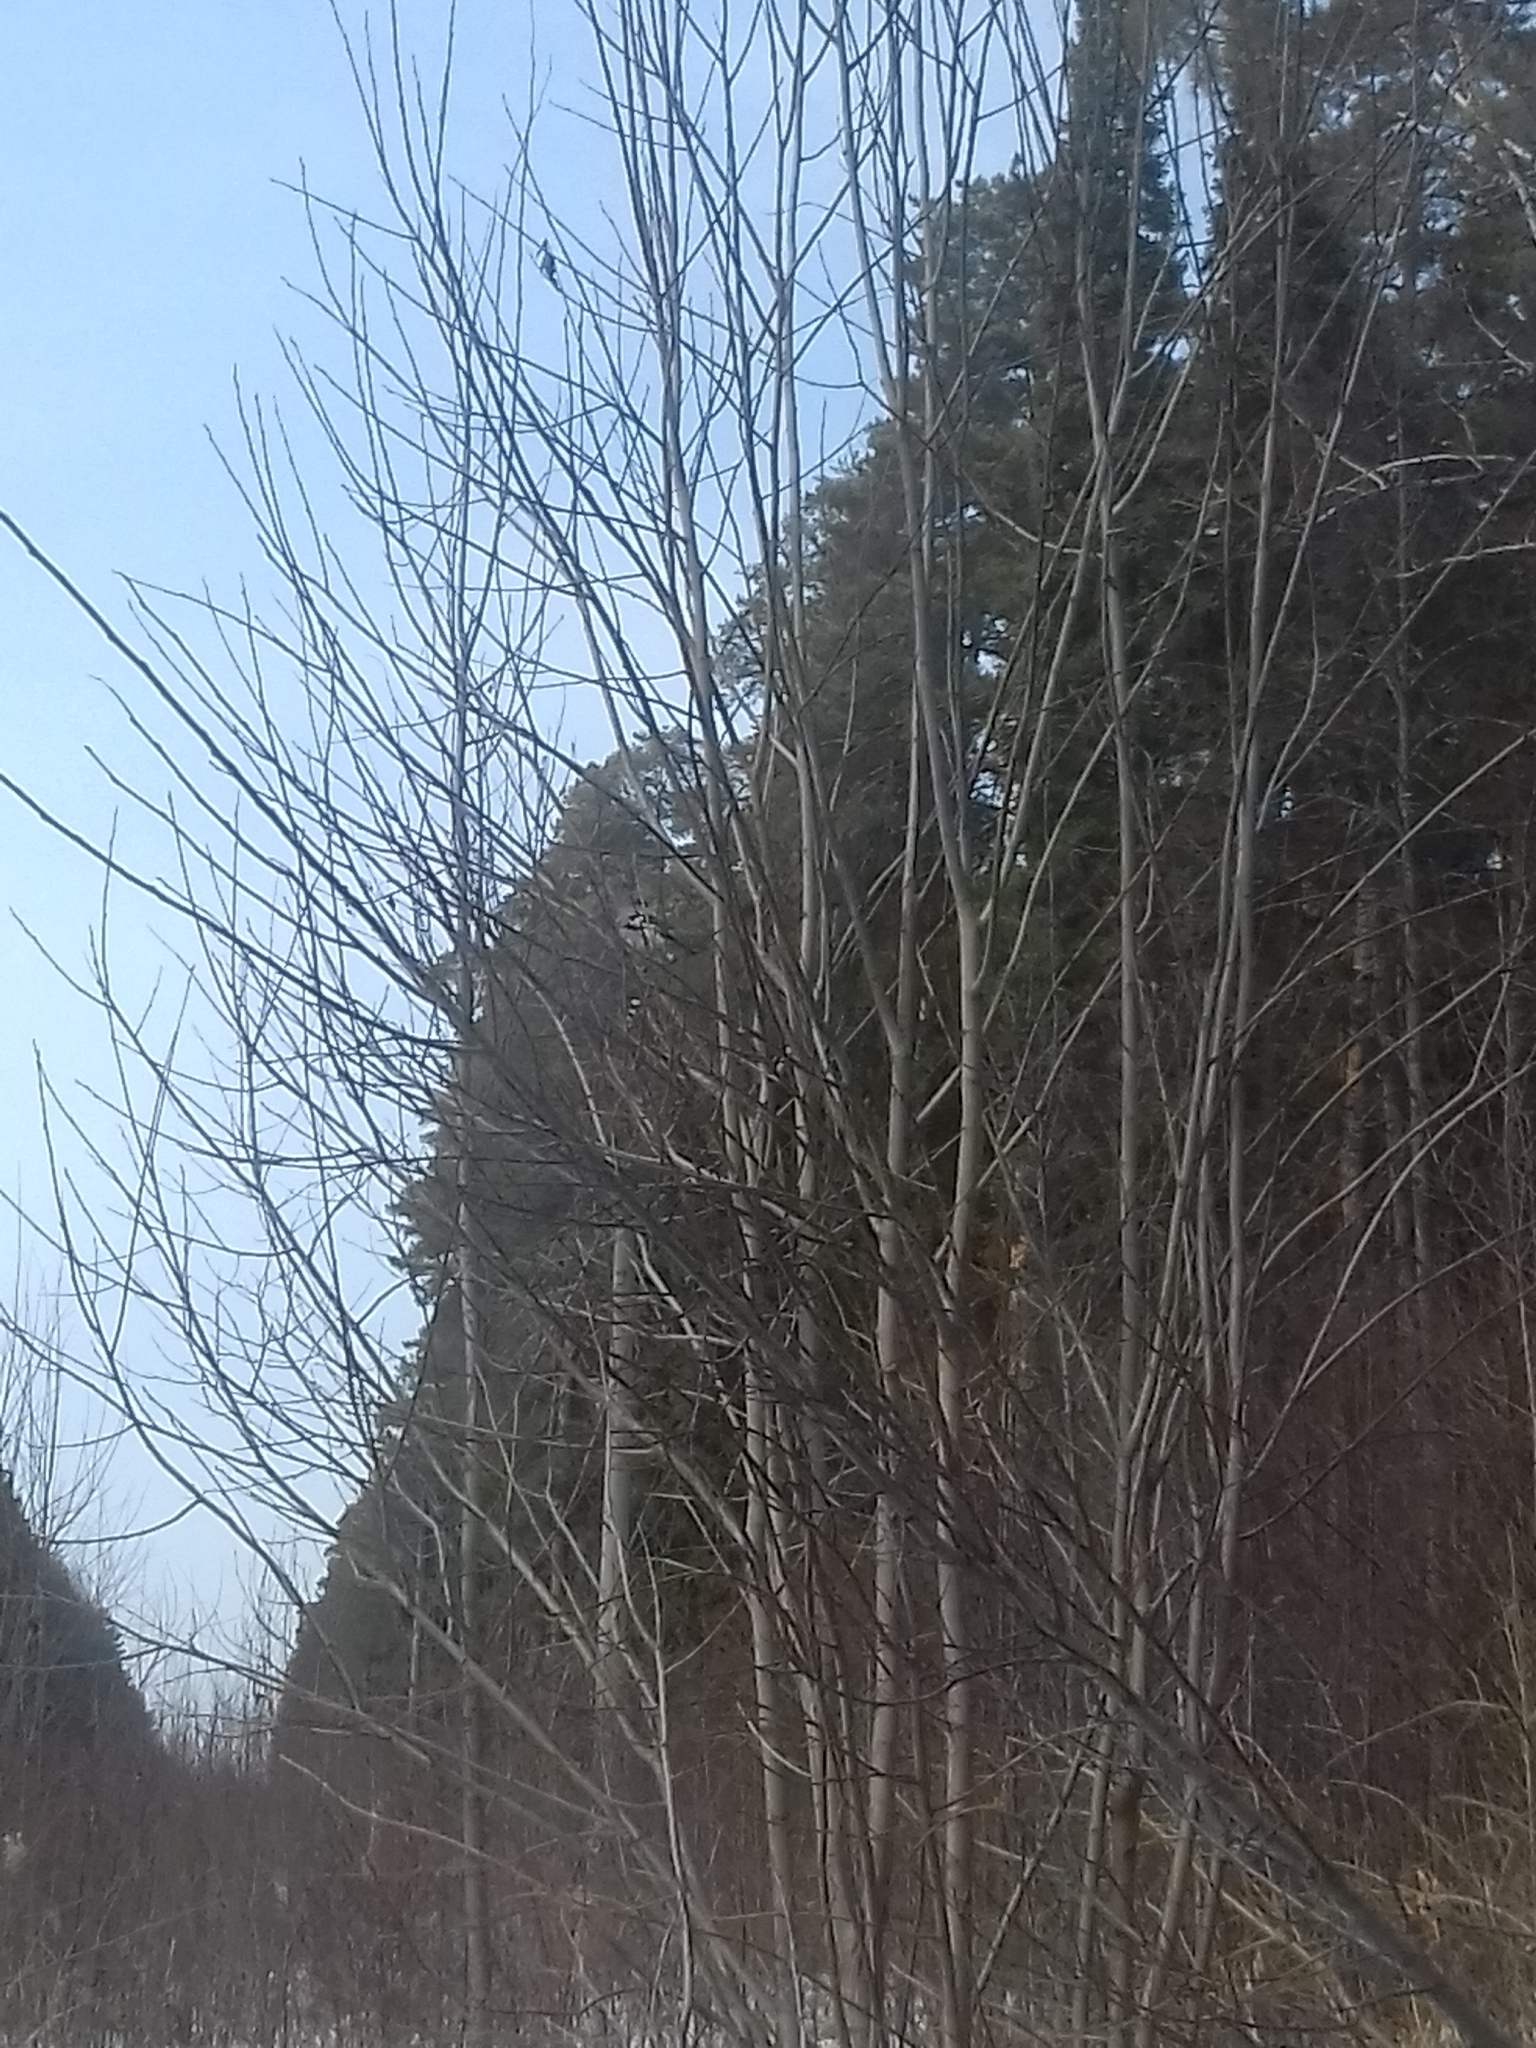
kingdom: Animalia
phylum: Chordata
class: Aves
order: Passeriformes
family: Corvidae
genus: Garrulus
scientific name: Garrulus glandarius
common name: Eurasian jay
